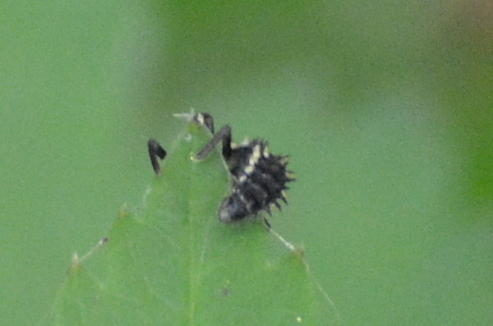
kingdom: Animalia
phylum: Arthropoda
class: Insecta
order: Coleoptera
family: Coccinellidae
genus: Calvia
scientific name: Calvia quatuordecimguttata
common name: Cream-spot ladybird
